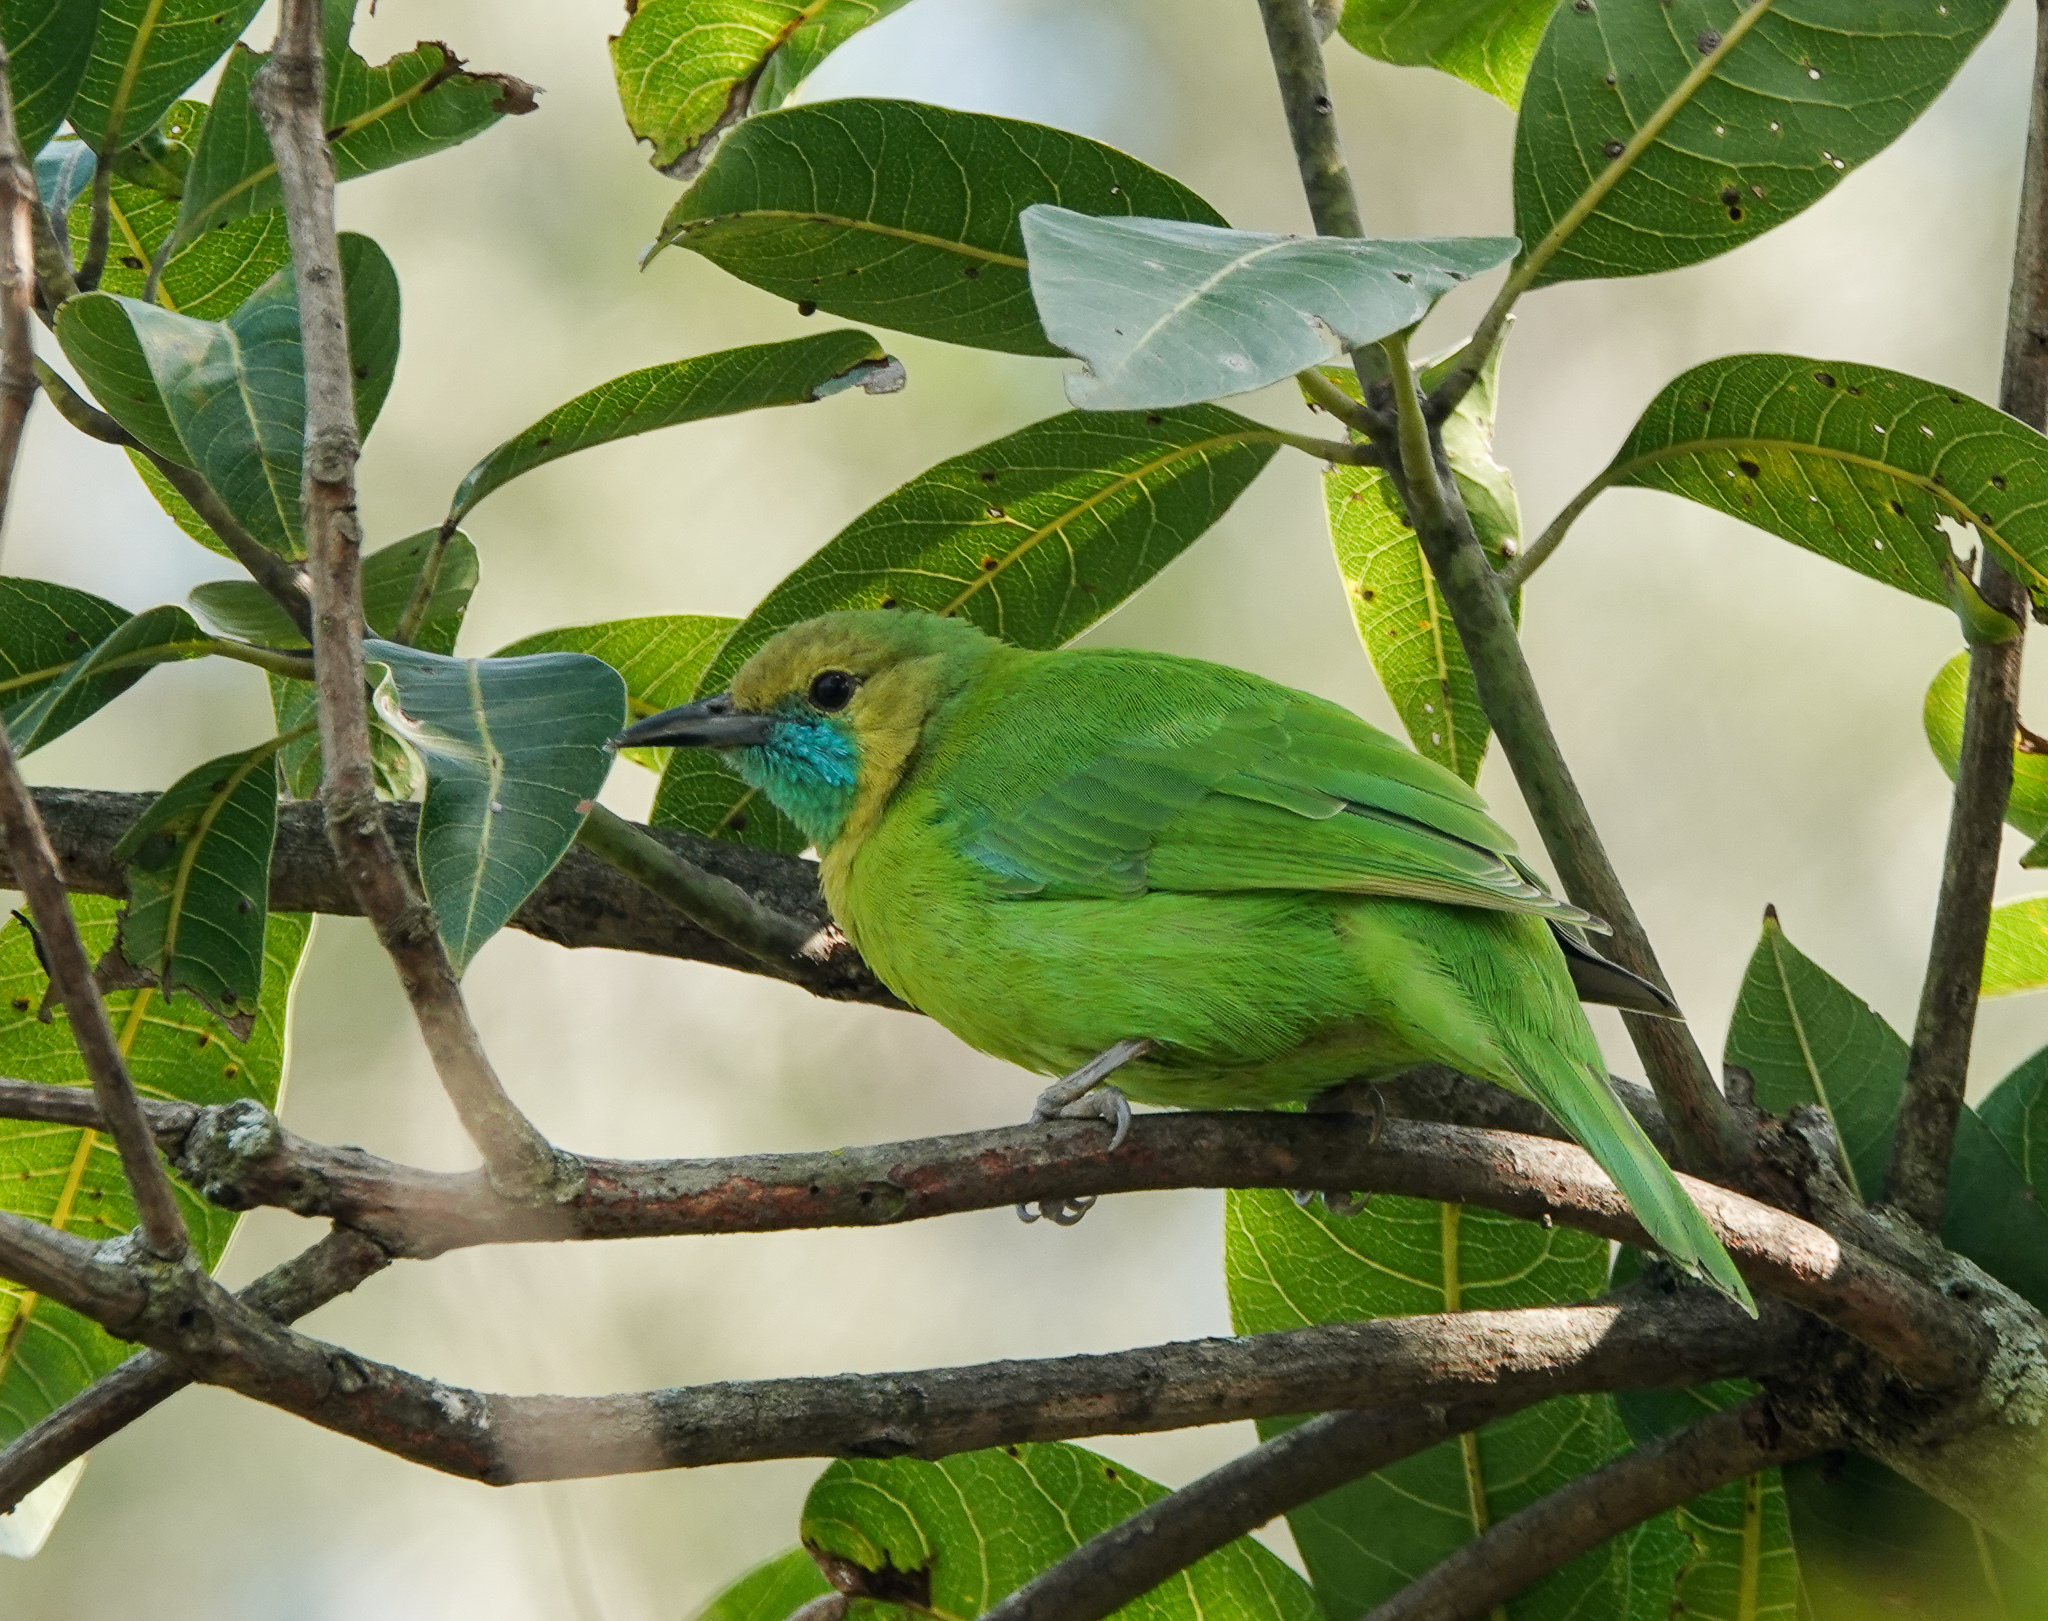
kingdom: Animalia
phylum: Chordata
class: Aves
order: Passeriformes
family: Chloropseidae
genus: Chloropsis
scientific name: Chloropsis jerdoni
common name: Jerdon's leafbird
